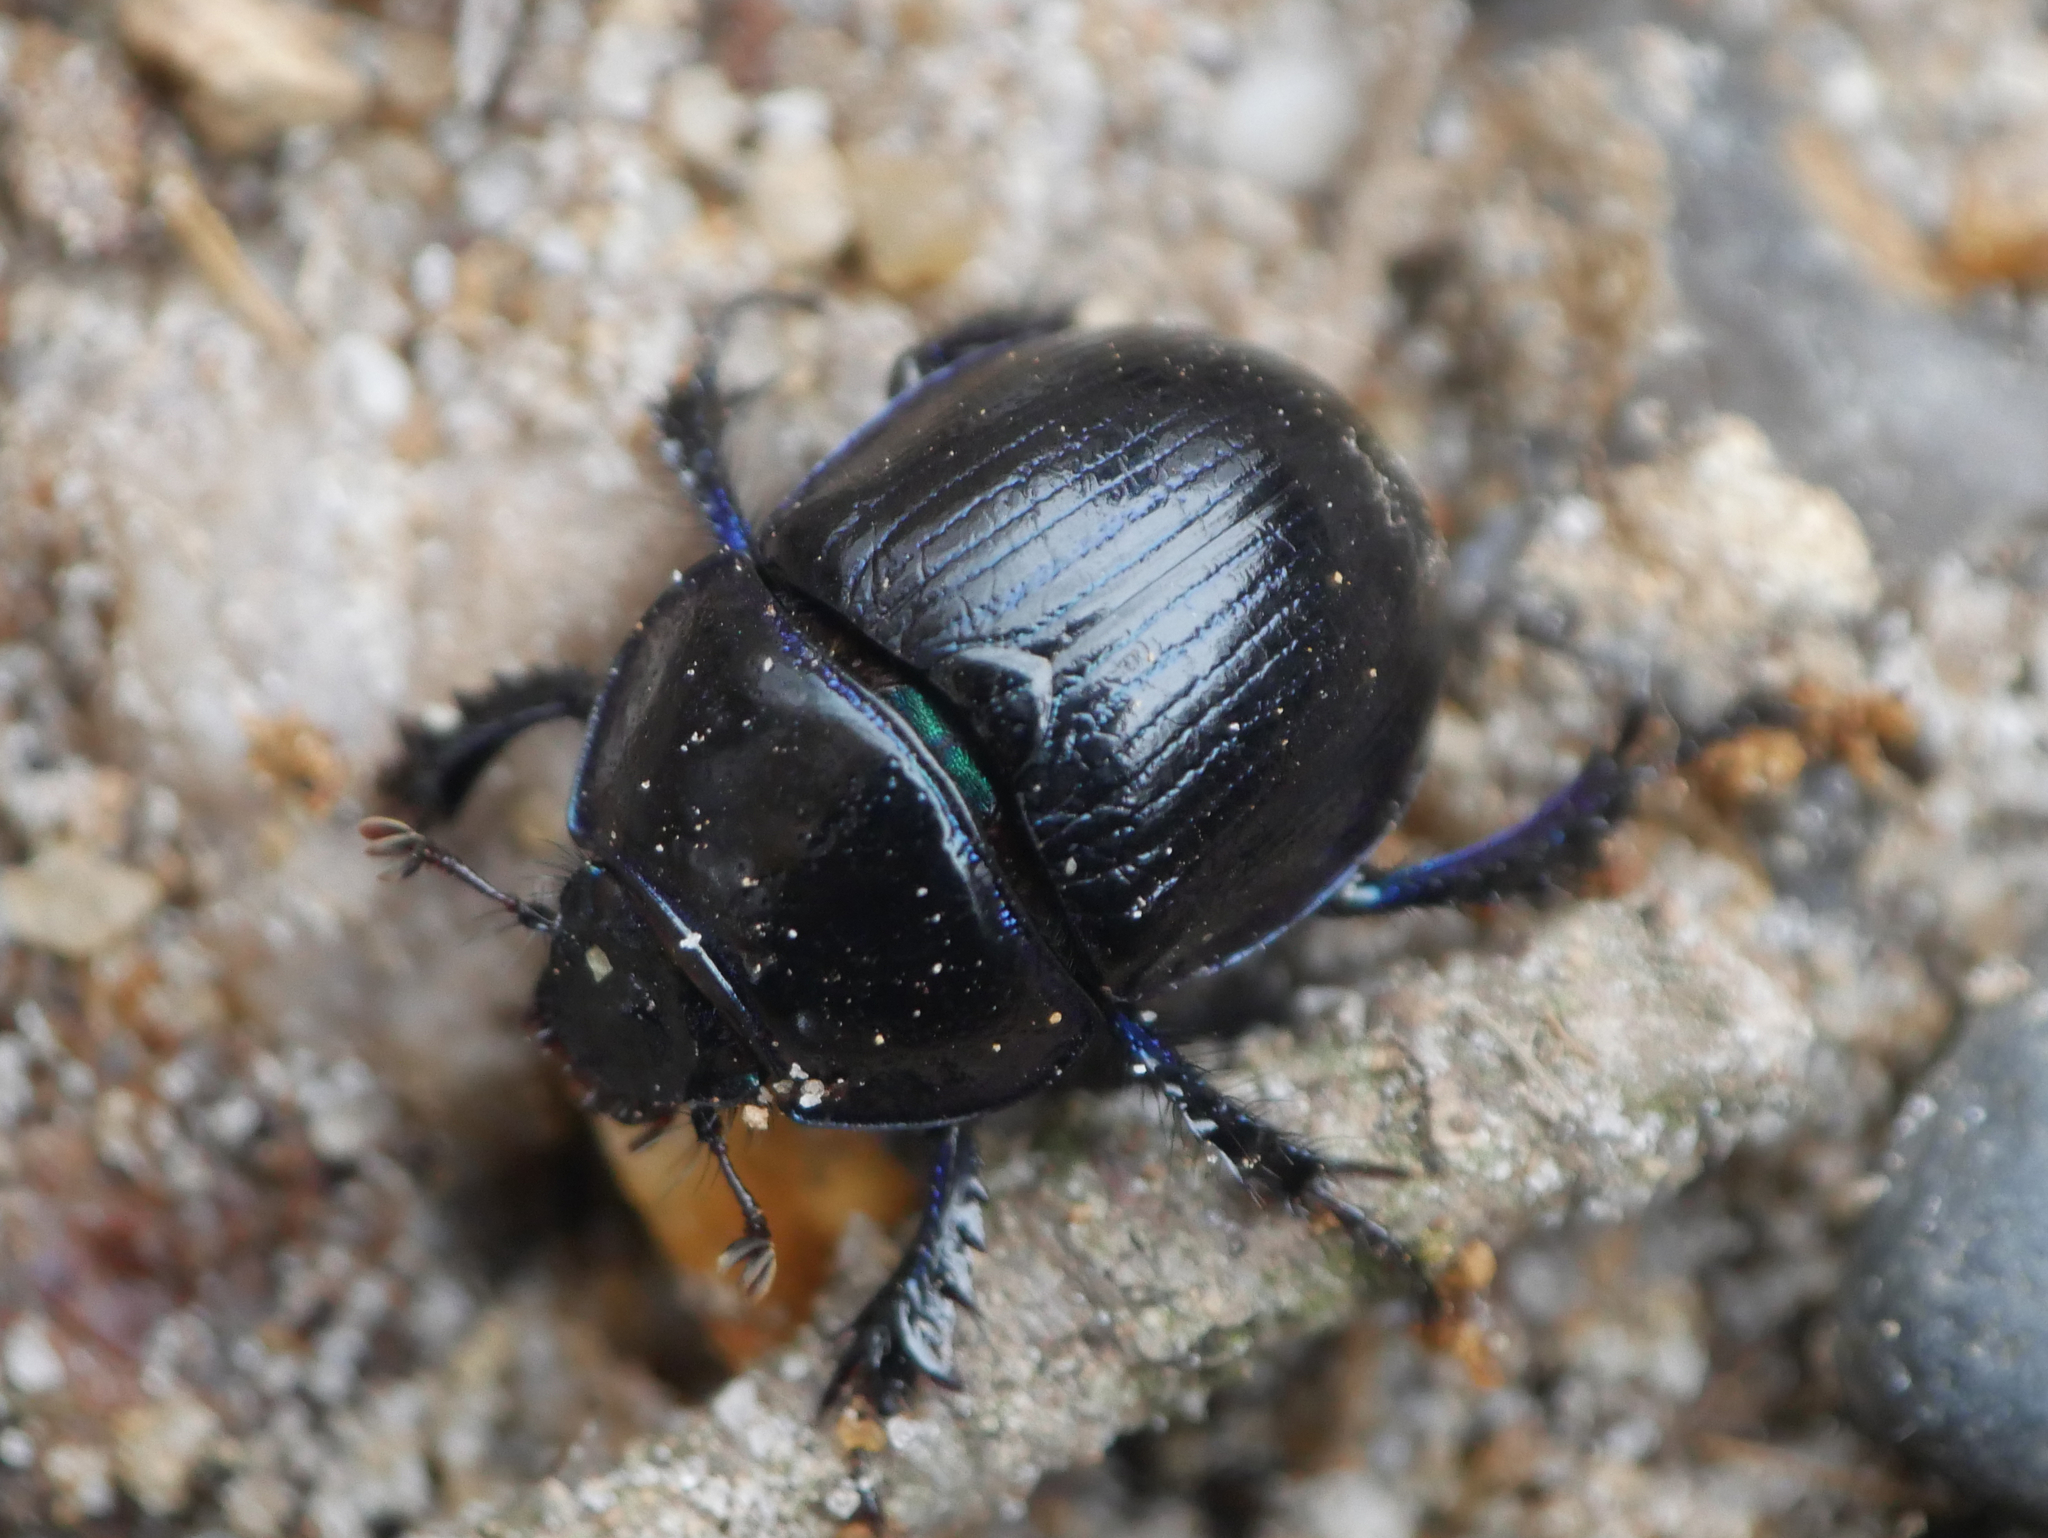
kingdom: Animalia
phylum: Arthropoda
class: Insecta
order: Coleoptera
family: Geotrupidae
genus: Anoplotrupes
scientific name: Anoplotrupes stercorosus
